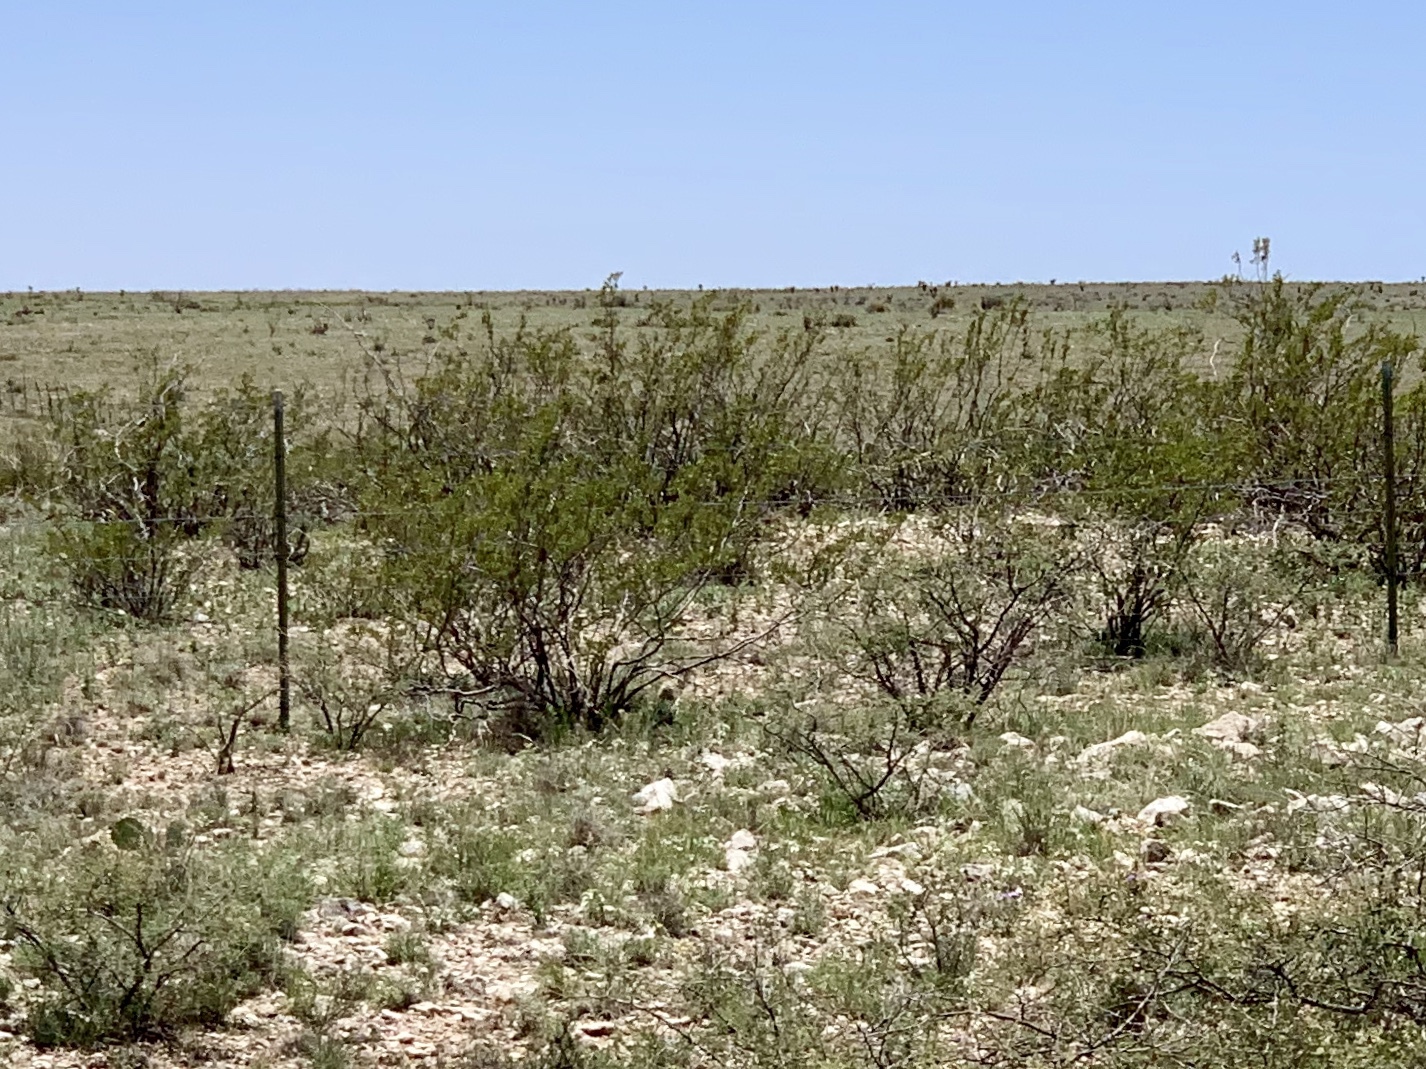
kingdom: Plantae
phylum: Tracheophyta
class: Magnoliopsida
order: Zygophyllales
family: Zygophyllaceae
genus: Larrea
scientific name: Larrea tridentata
